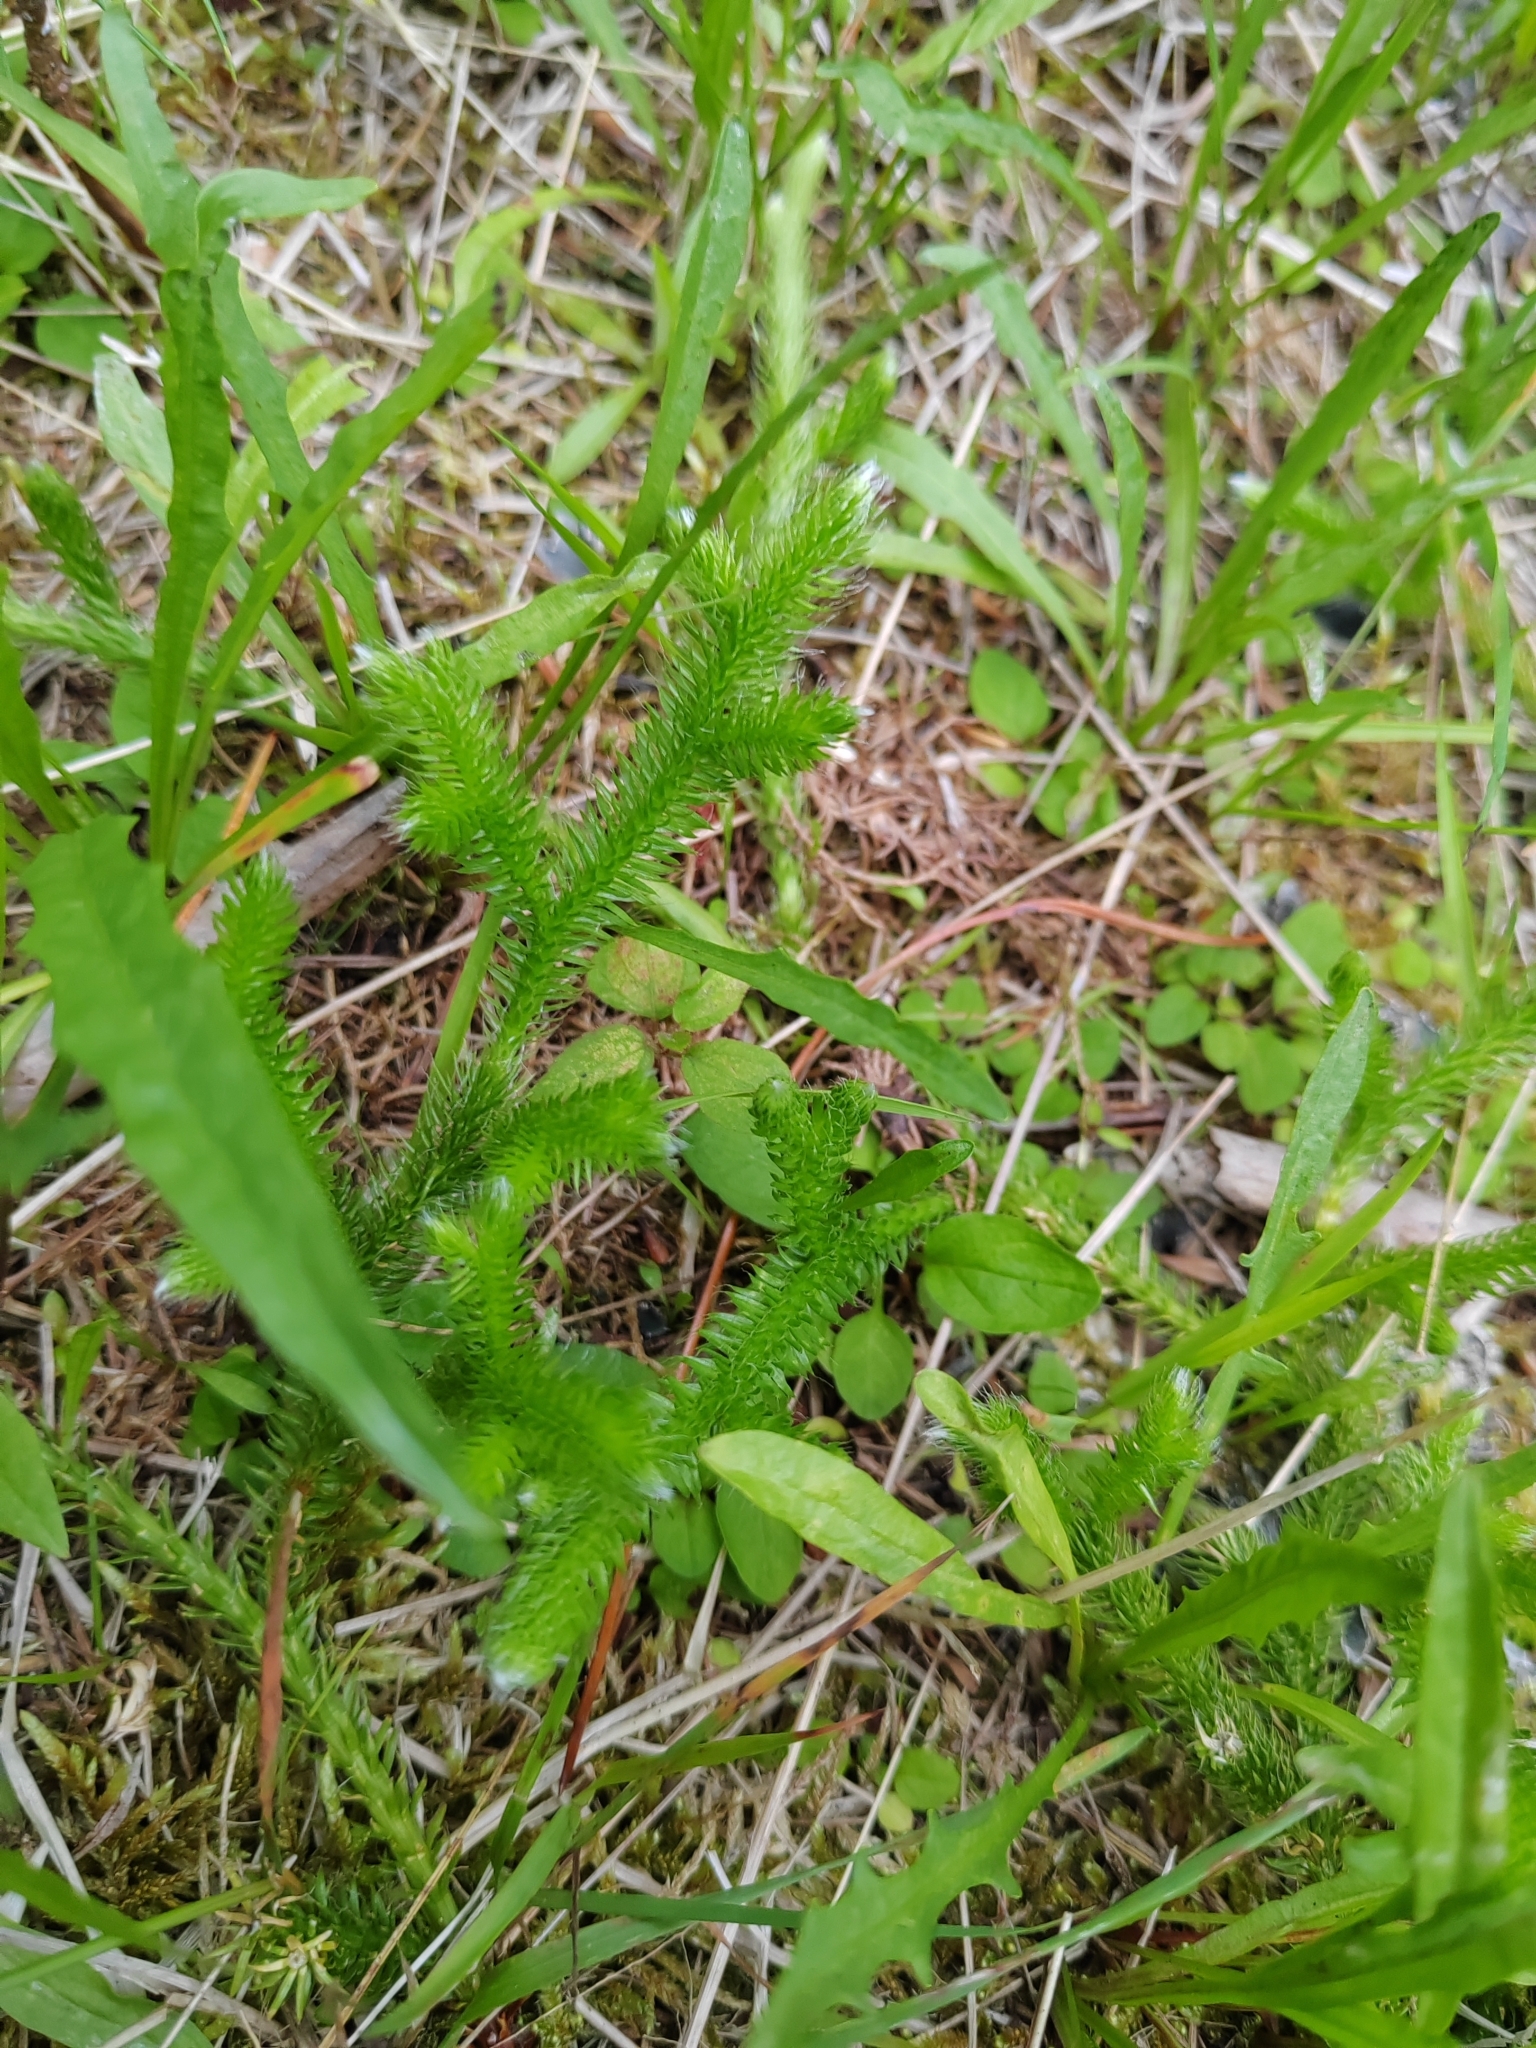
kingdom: Plantae
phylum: Tracheophyta
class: Lycopodiopsida
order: Lycopodiales
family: Lycopodiaceae
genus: Lycopodium
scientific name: Lycopodium clavatum
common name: Stag's-horn clubmoss
